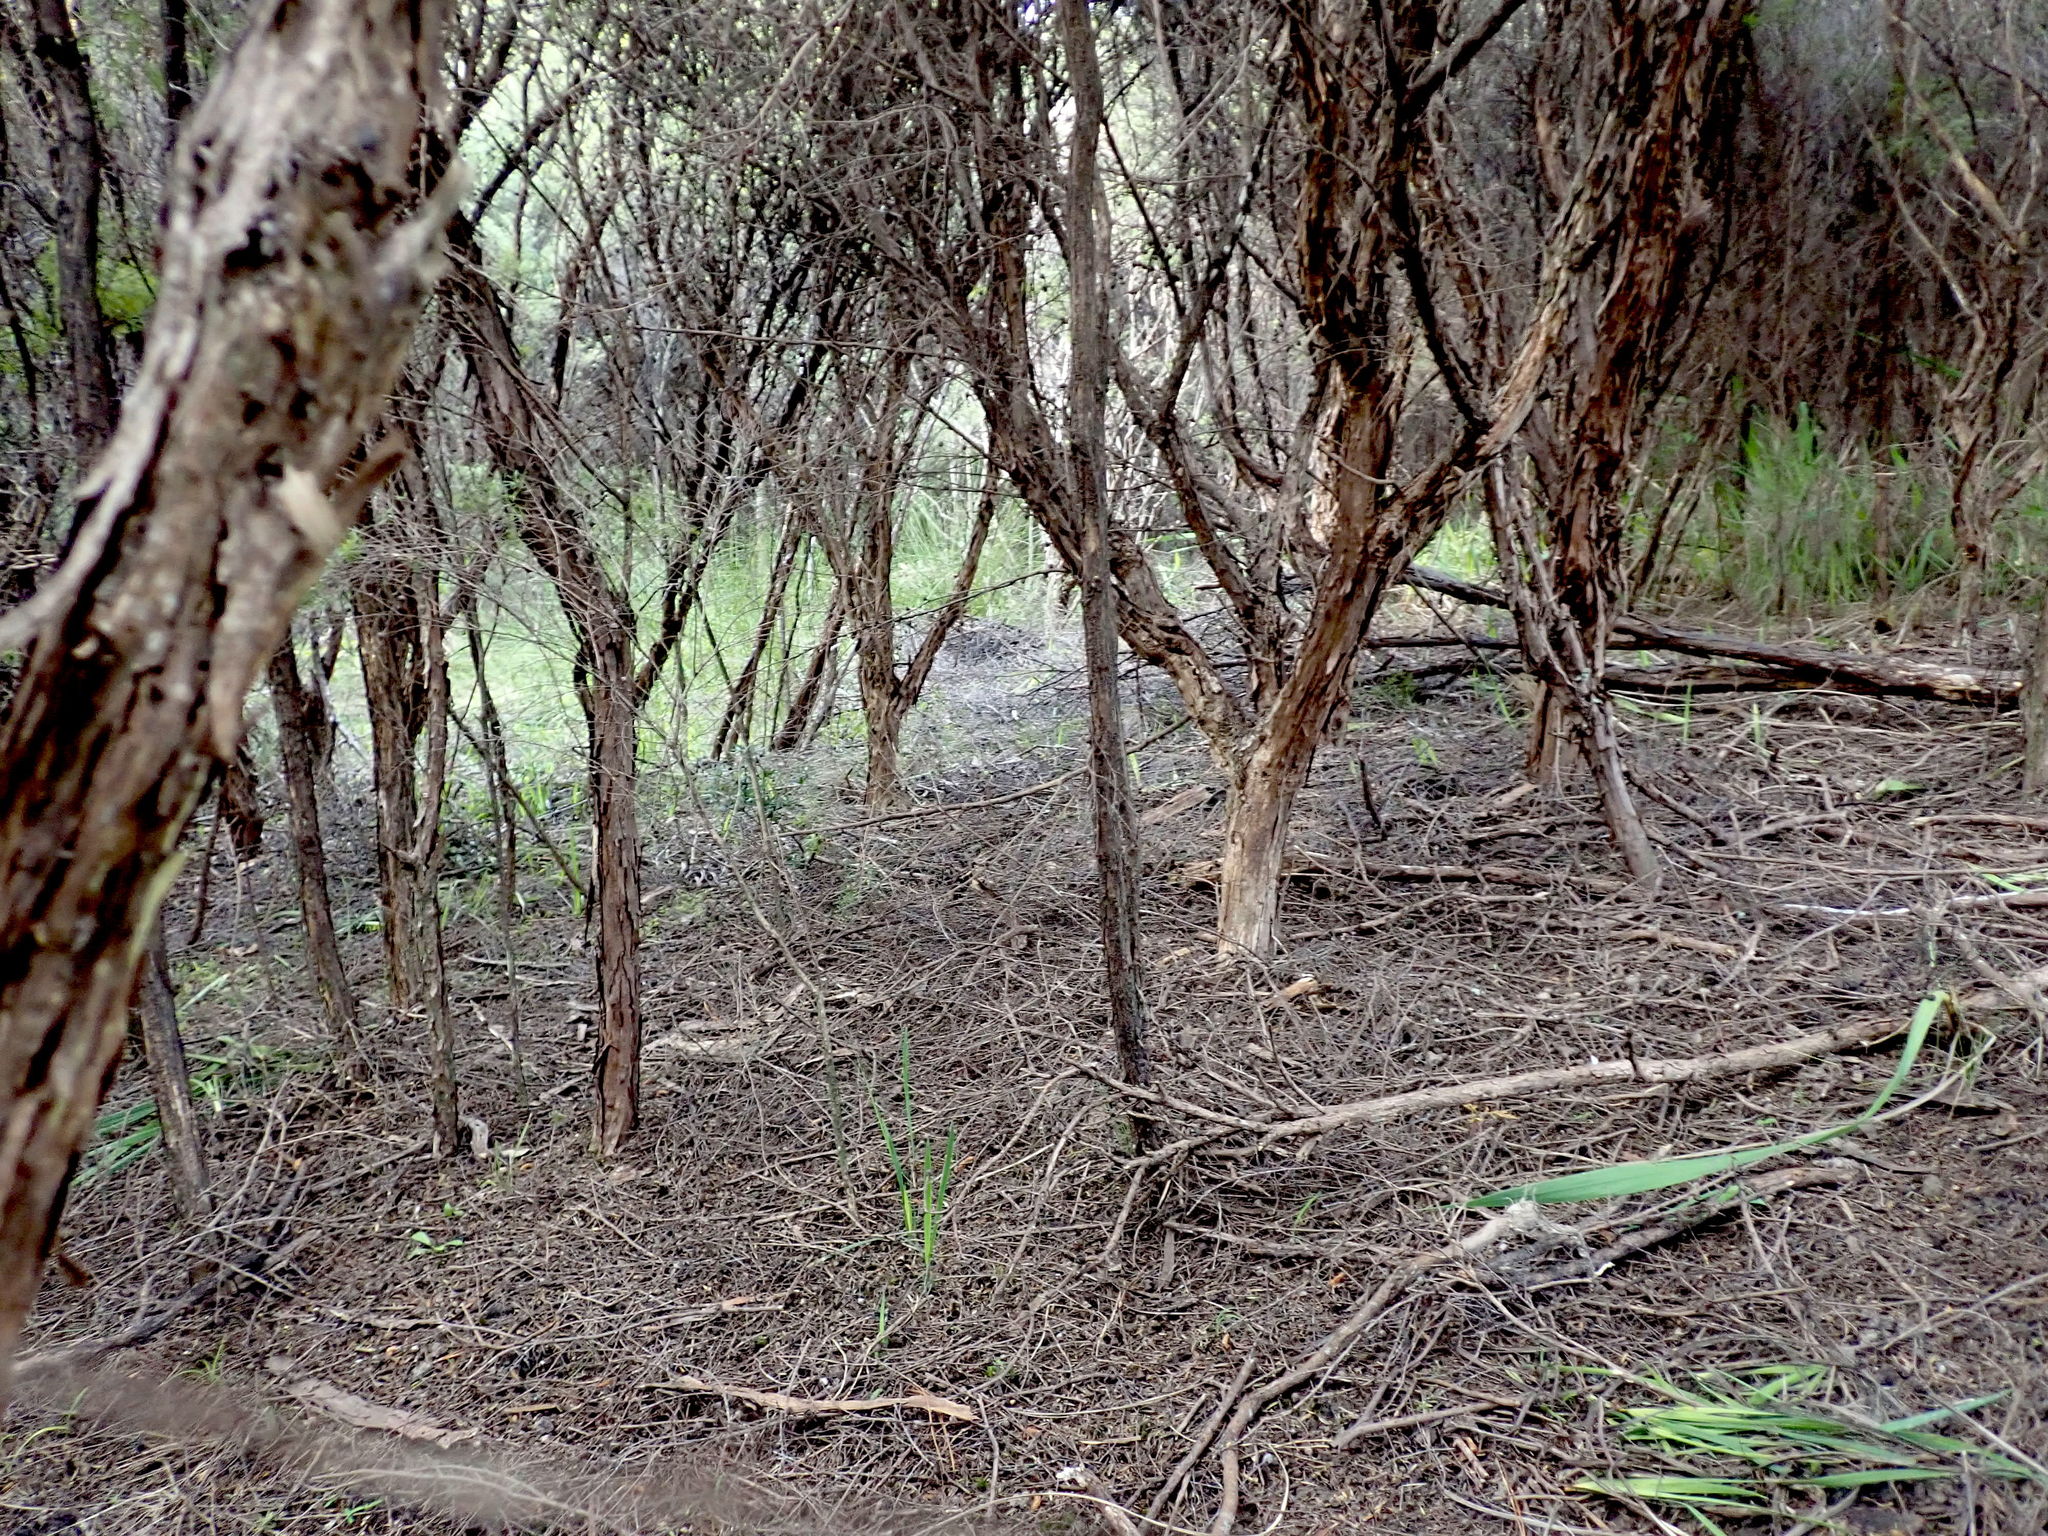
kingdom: Plantae
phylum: Tracheophyta
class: Magnoliopsida
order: Myrtales
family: Myrtaceae
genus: Leptospermum
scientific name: Leptospermum scoparium
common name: Broom tea-tree
